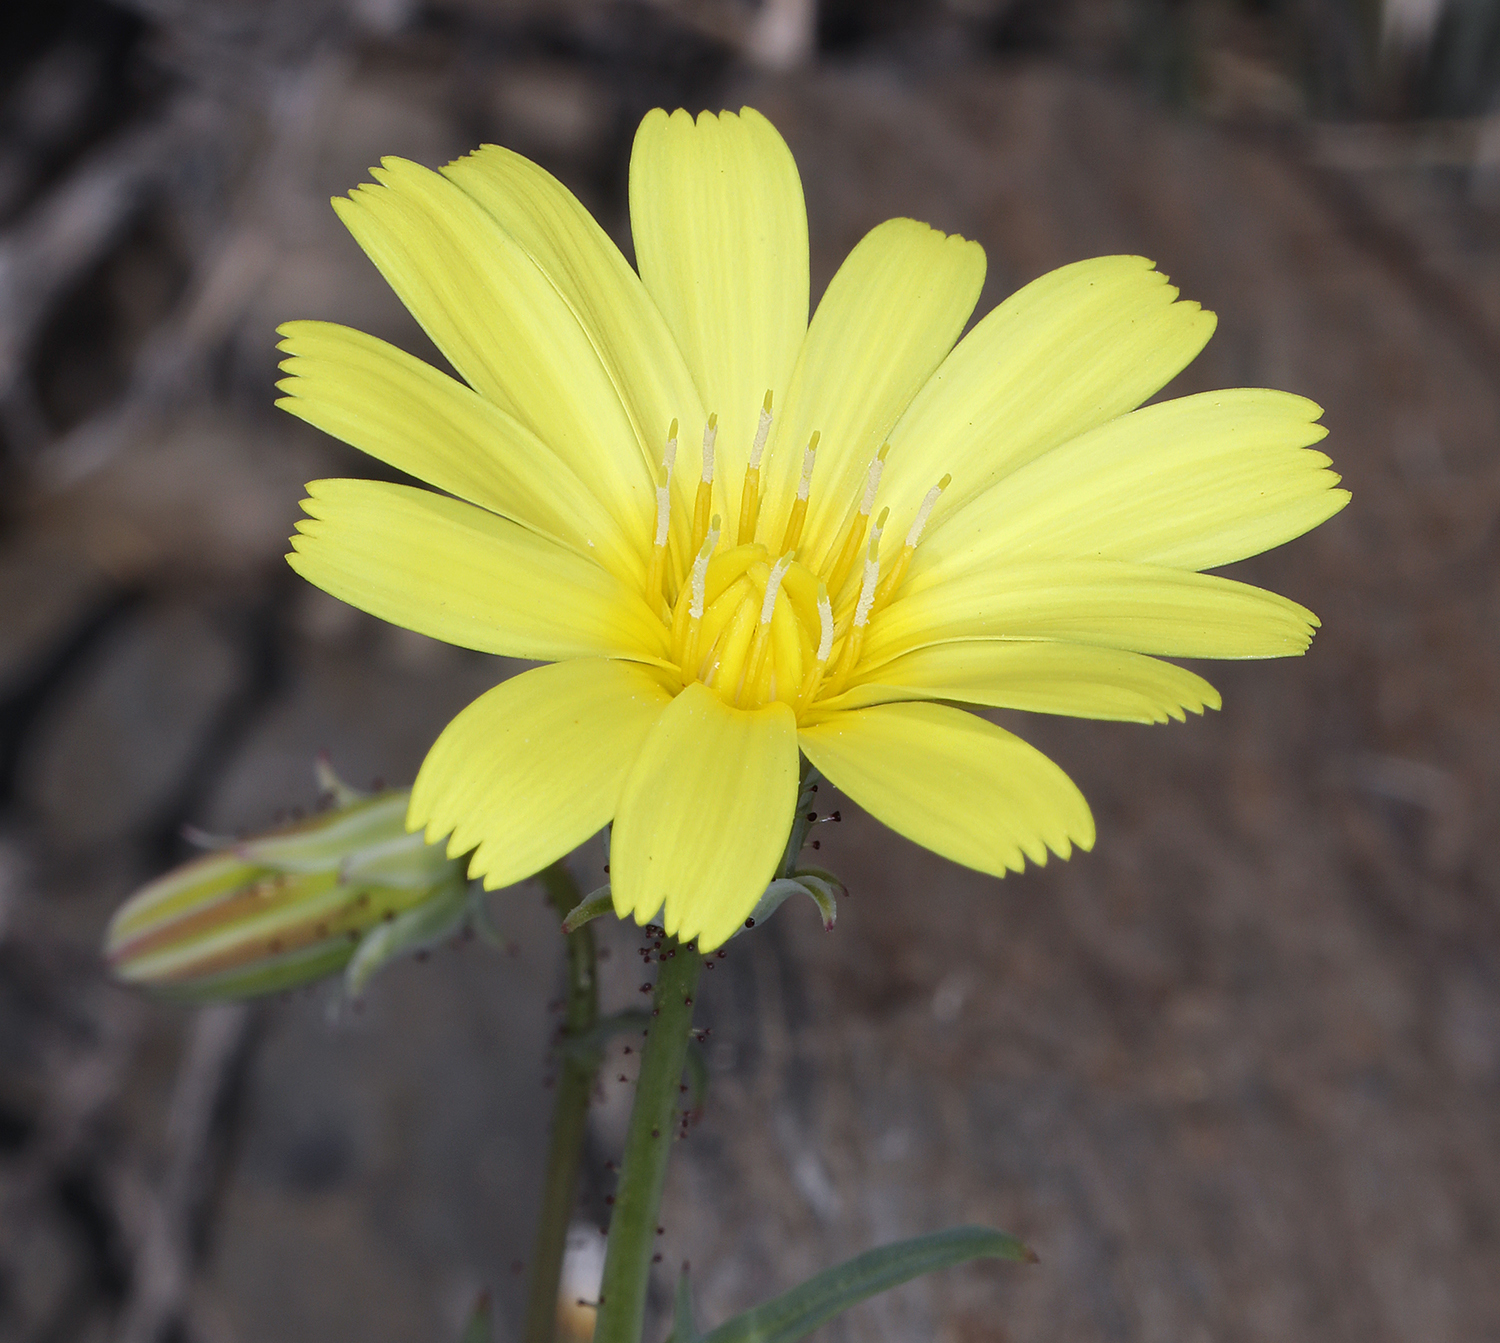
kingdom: Plantae
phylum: Tracheophyta
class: Magnoliopsida
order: Asterales
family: Asteraceae
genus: Calycoseris
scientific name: Calycoseris parryi
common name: Yellow tackstem
